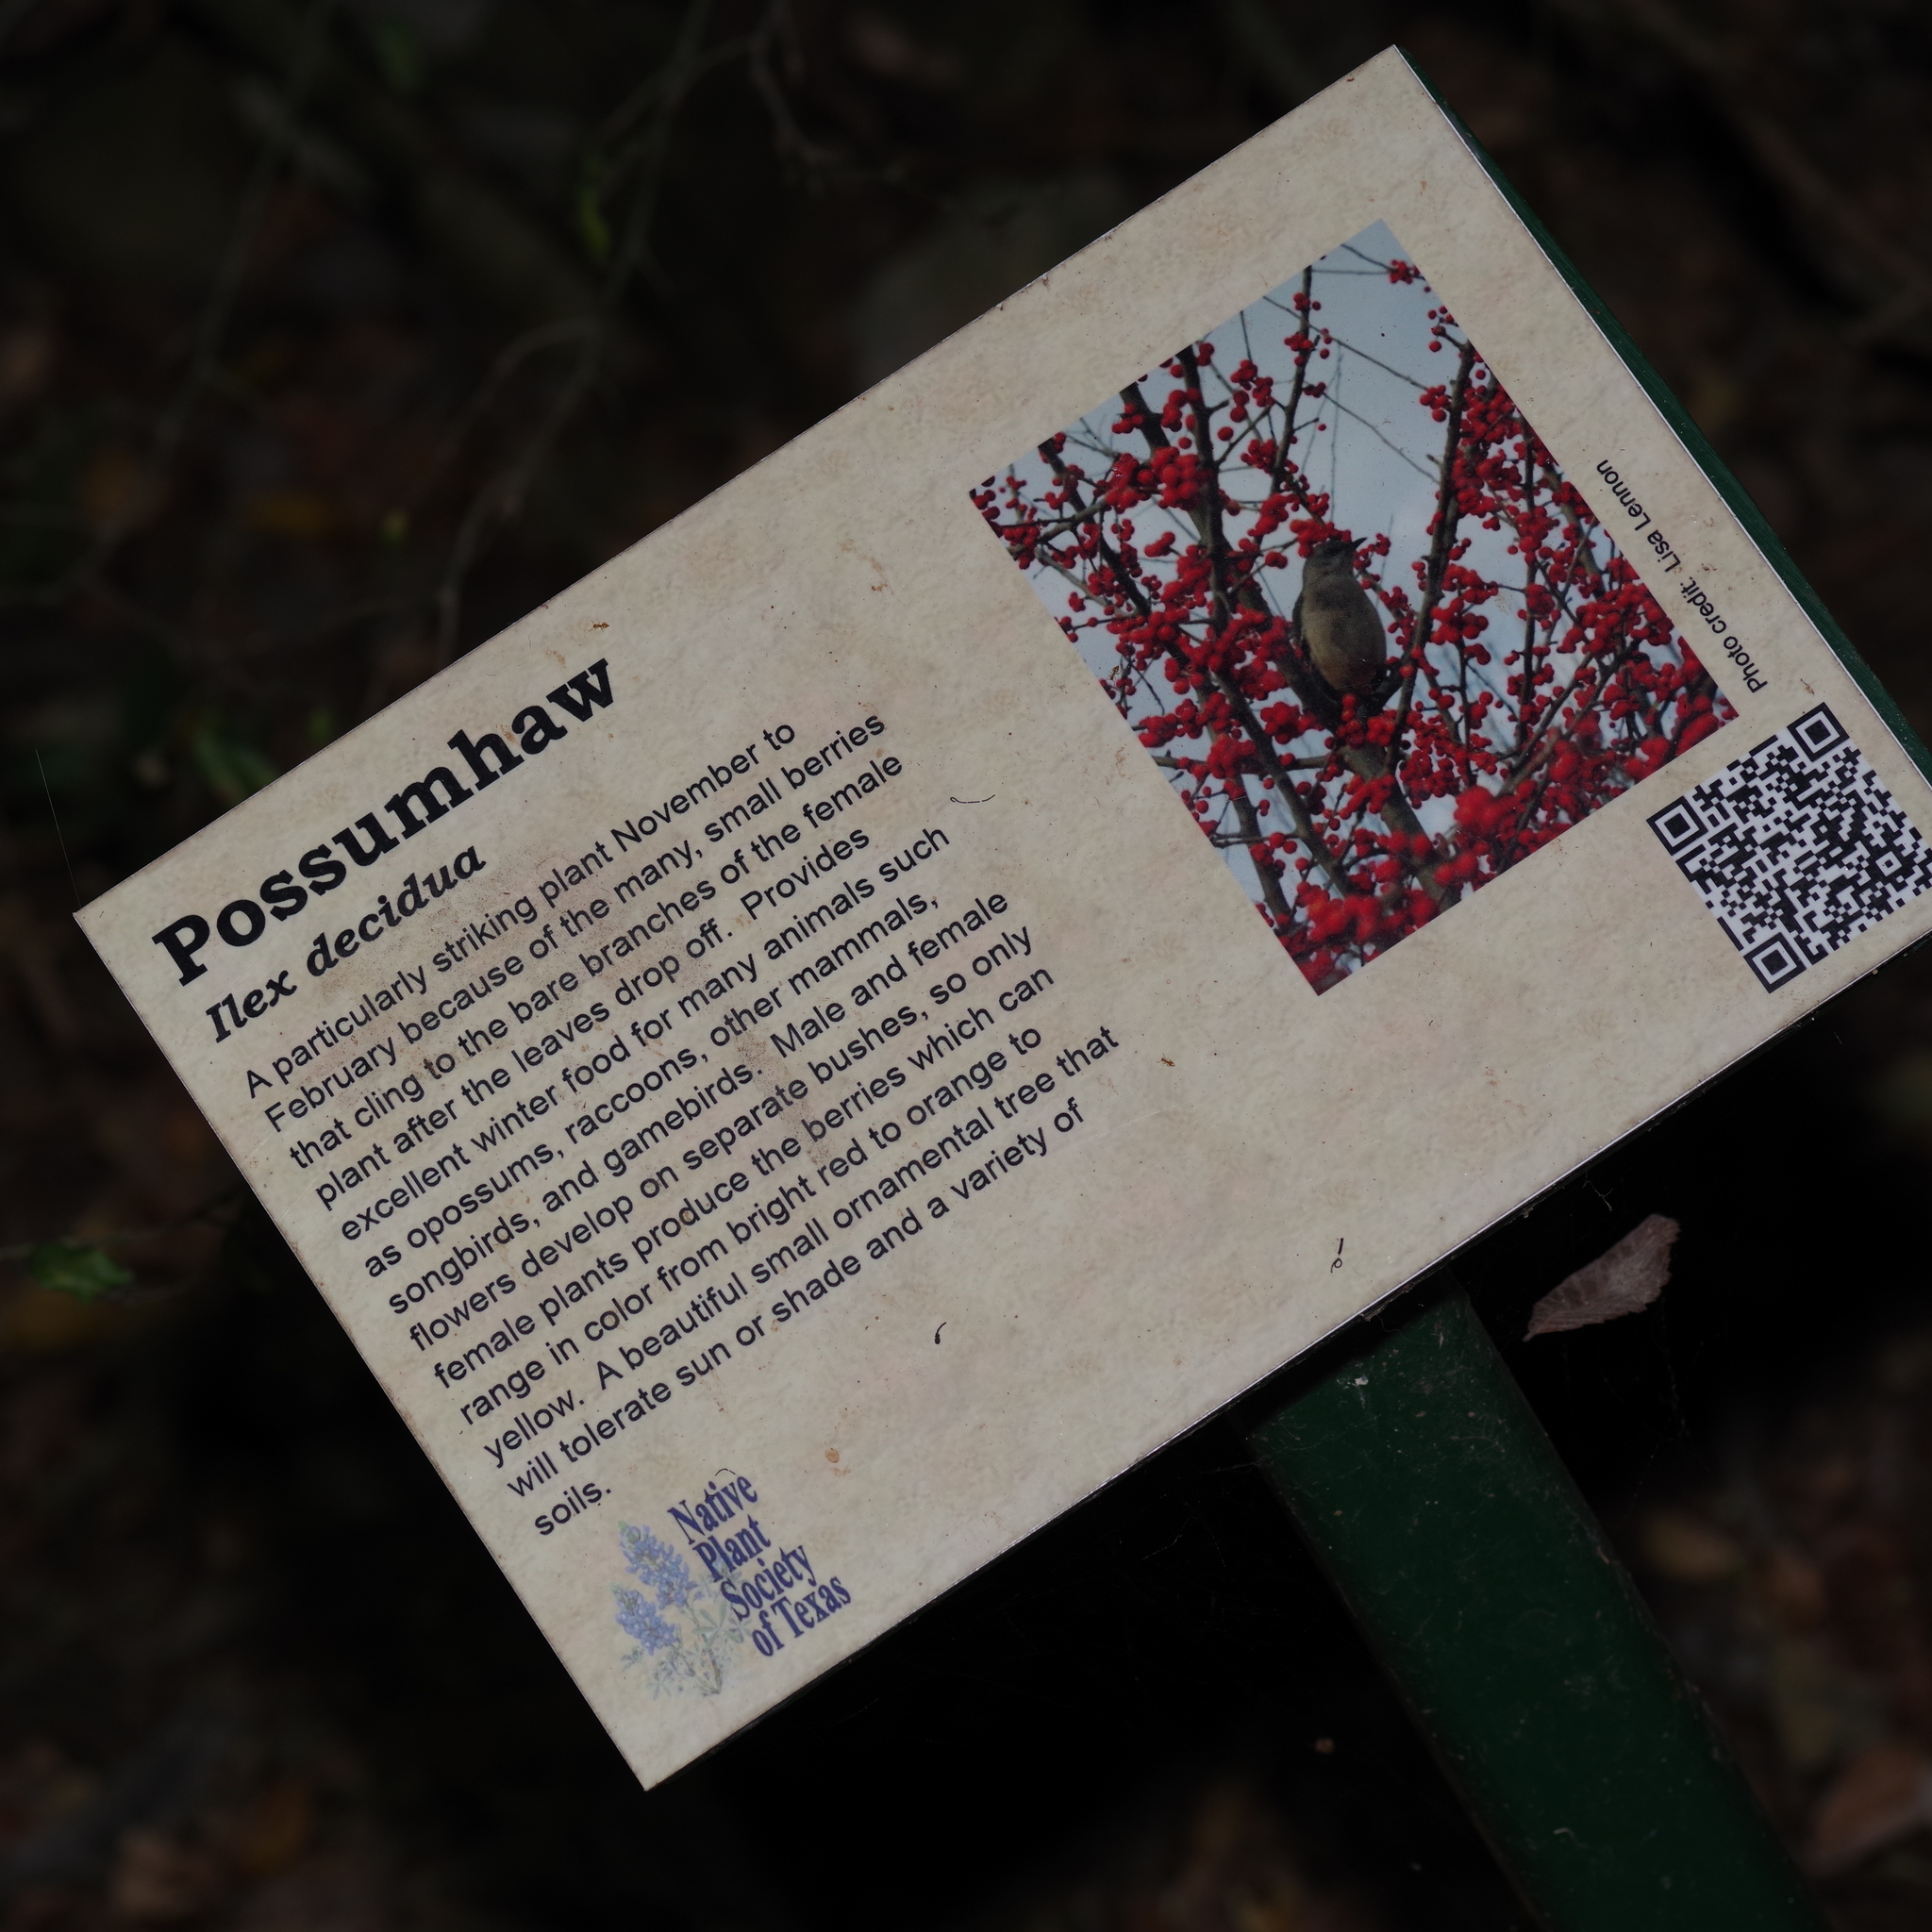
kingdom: Plantae
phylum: Tracheophyta
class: Magnoliopsida
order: Piperales
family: Aristolochiaceae
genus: Endodeca
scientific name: Endodeca serpentaria
